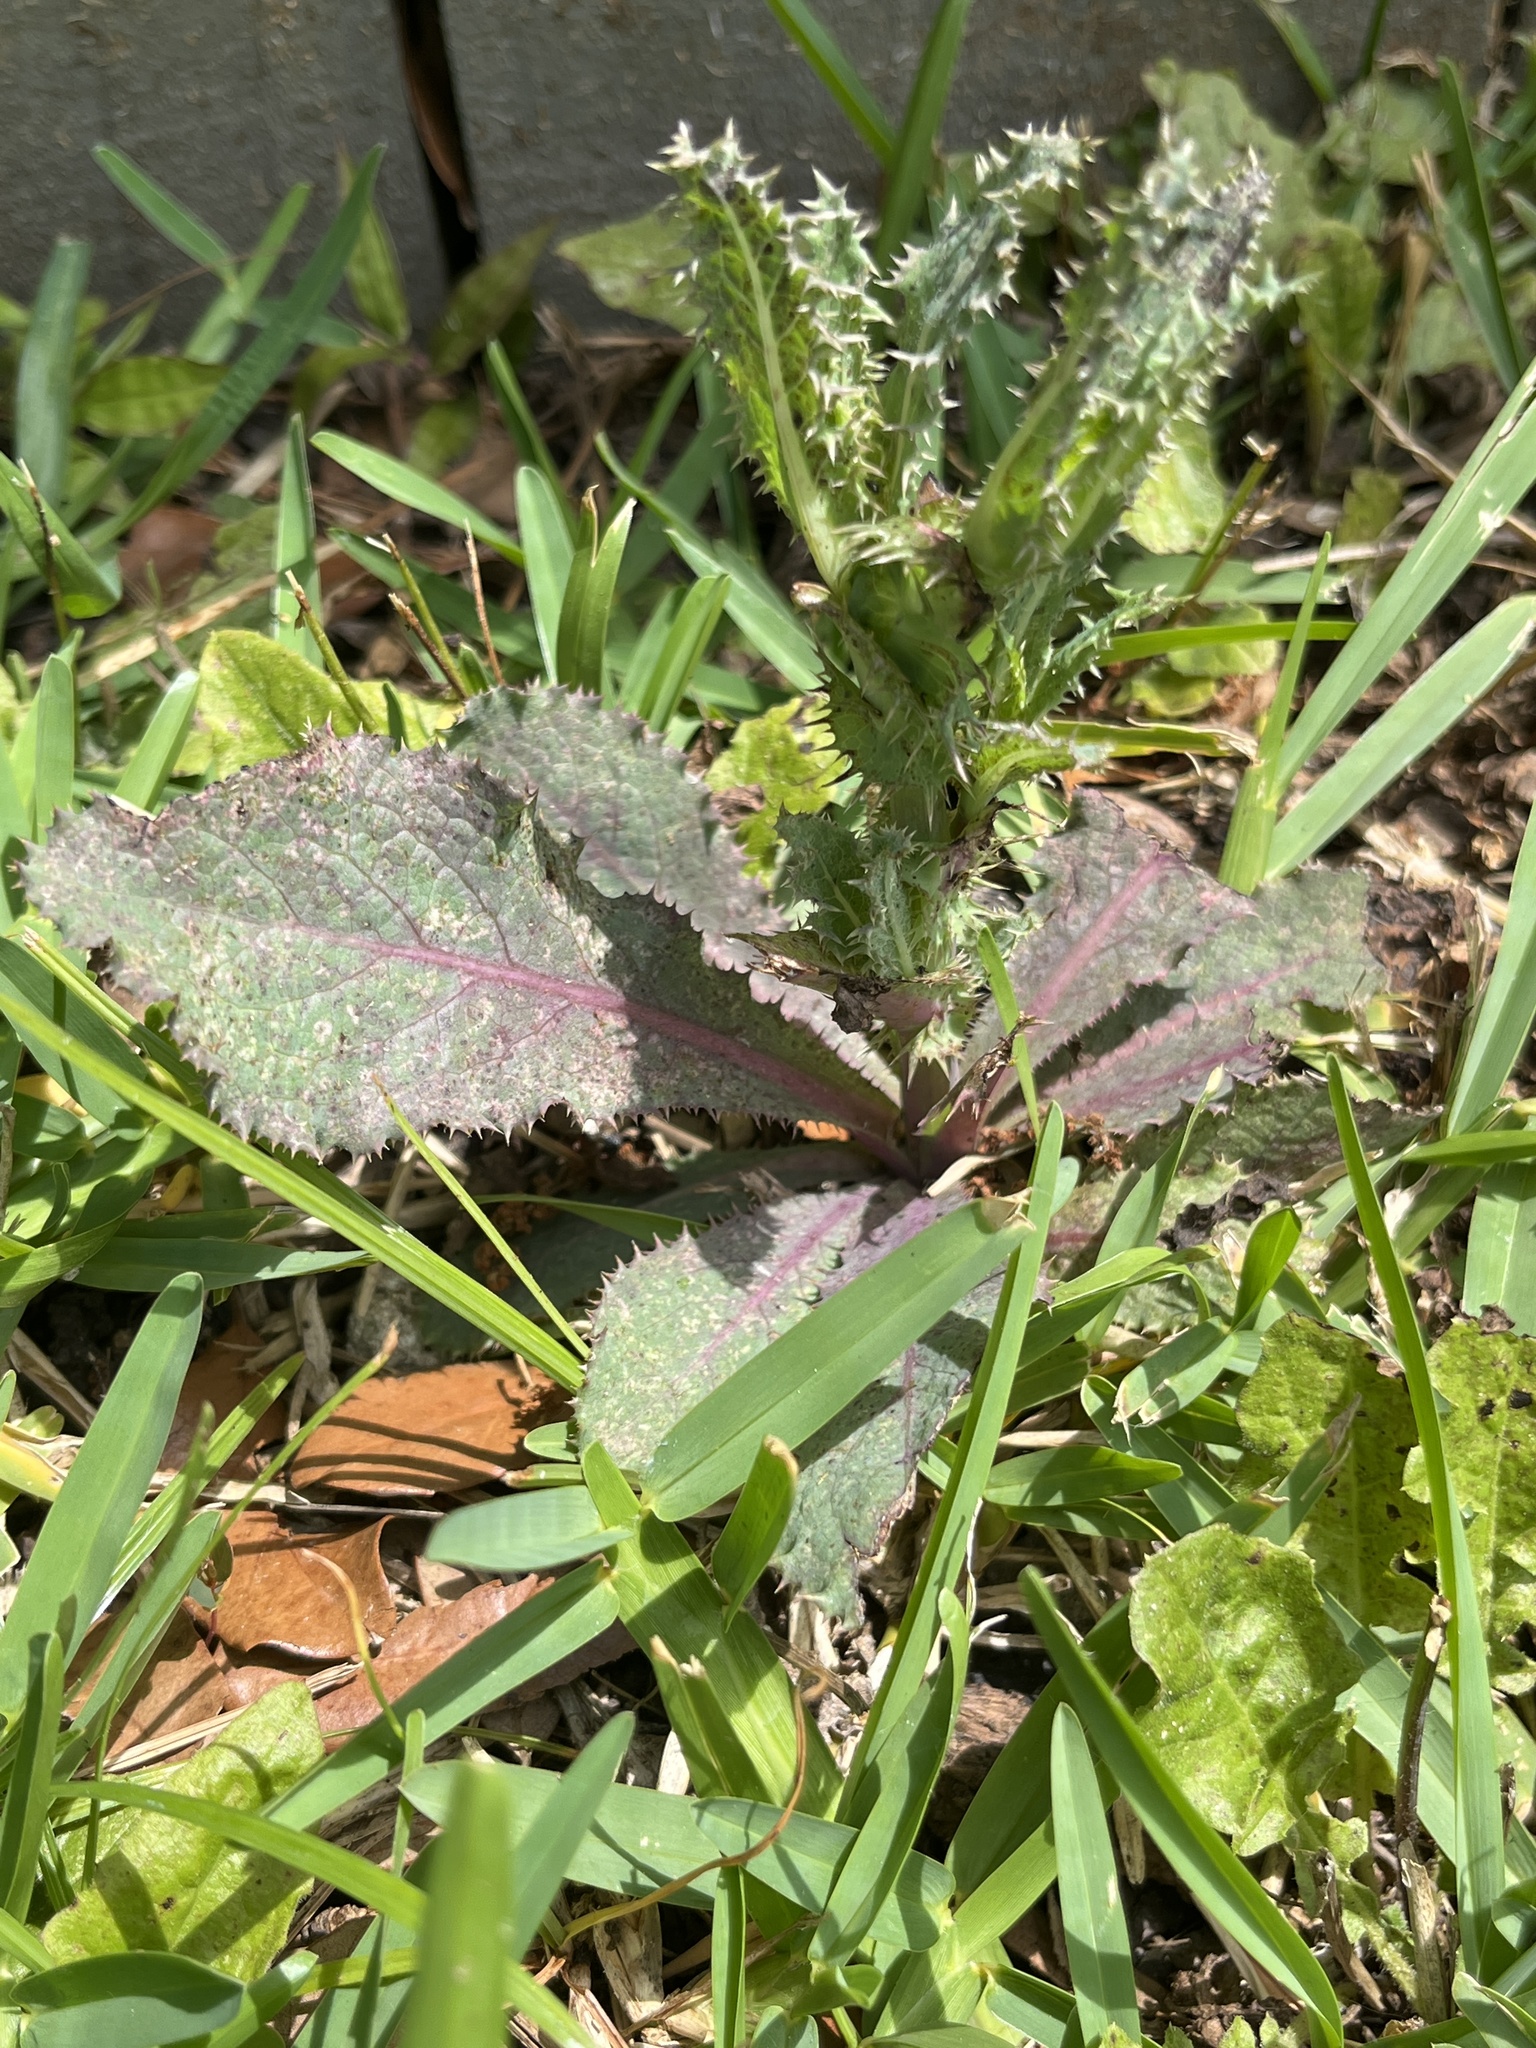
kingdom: Plantae
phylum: Tracheophyta
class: Magnoliopsida
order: Asterales
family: Asteraceae
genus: Sonchus
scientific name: Sonchus asper
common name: Prickly sow-thistle
